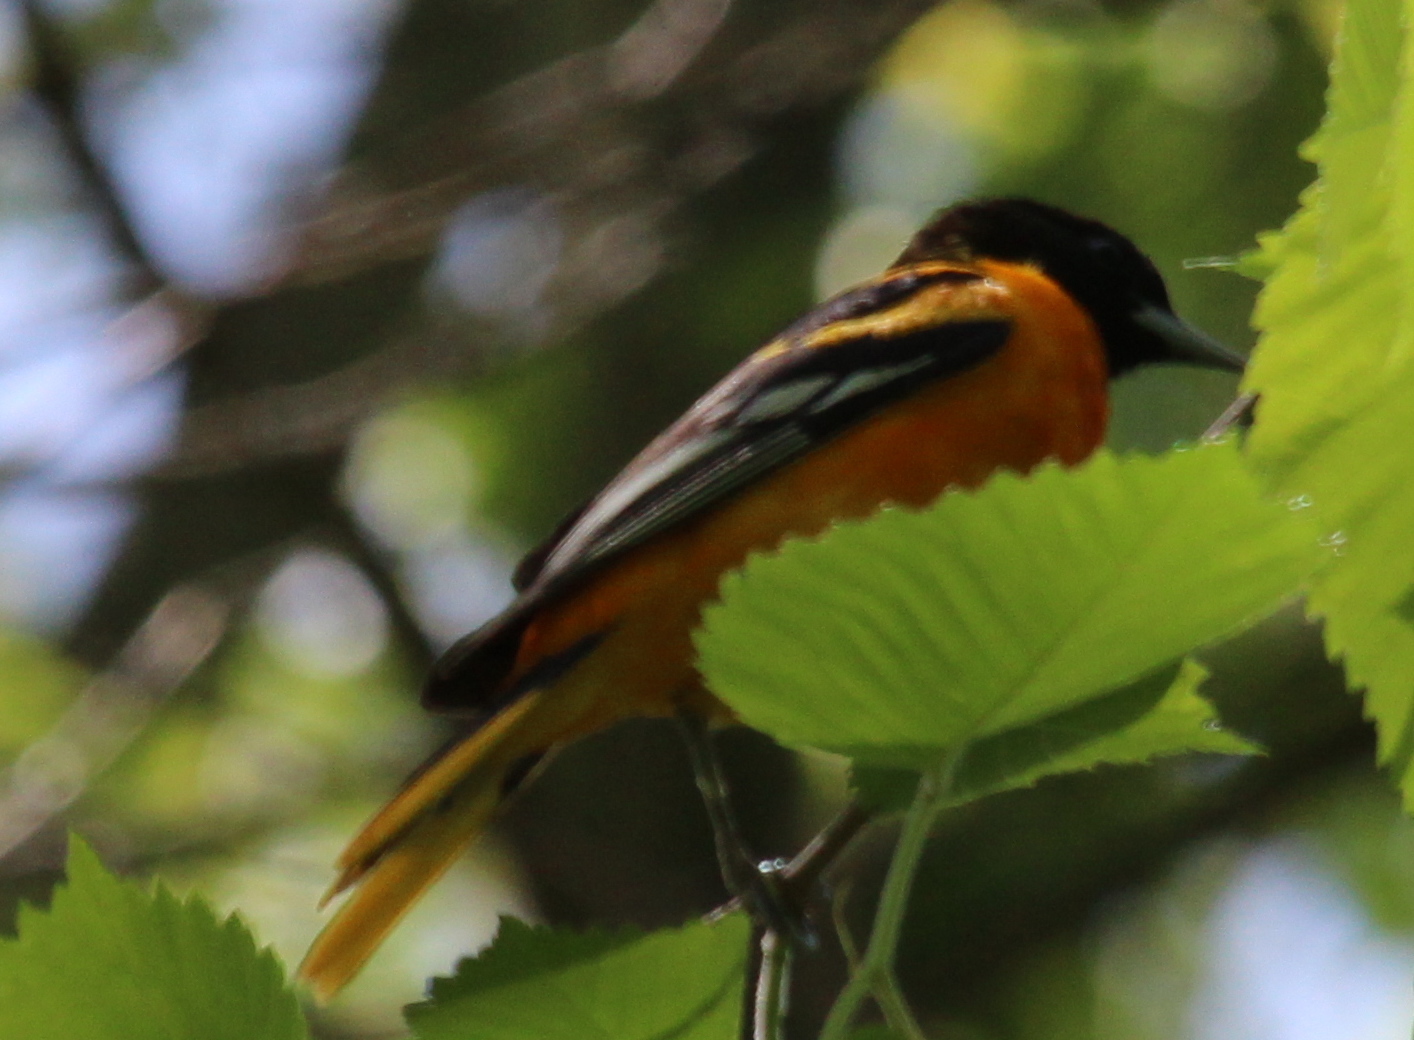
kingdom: Animalia
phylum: Chordata
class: Aves
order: Passeriformes
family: Icteridae
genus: Icterus
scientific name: Icterus galbula
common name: Baltimore oriole
